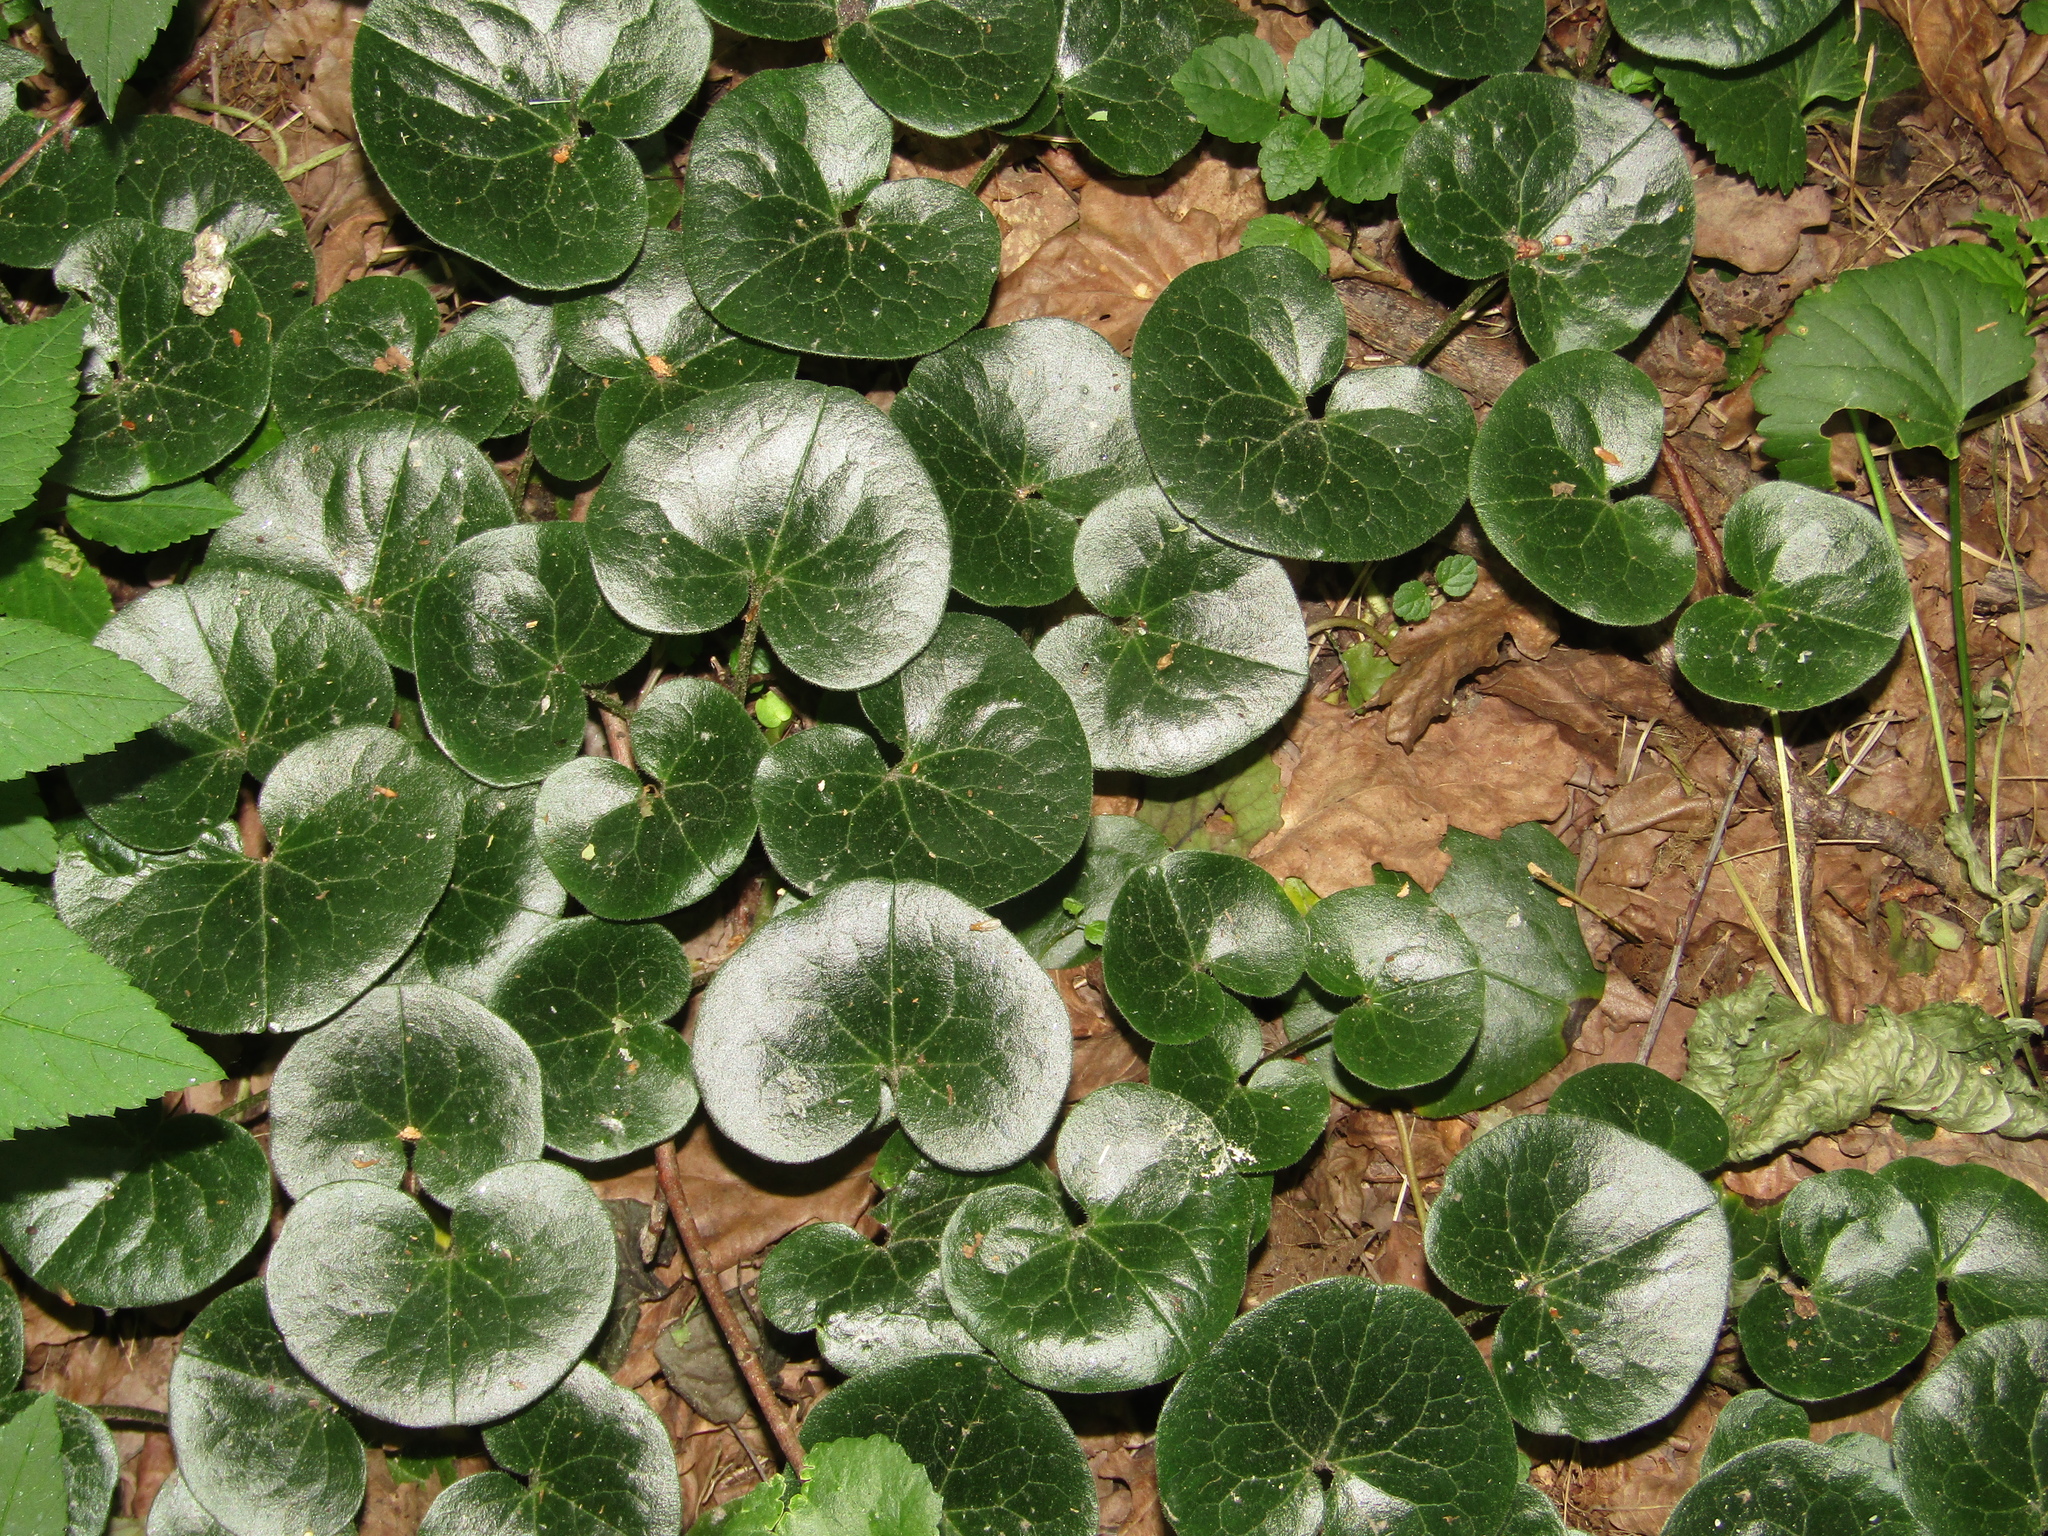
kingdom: Plantae
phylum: Tracheophyta
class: Magnoliopsida
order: Piperales
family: Aristolochiaceae
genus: Asarum
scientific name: Asarum europaeum
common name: Asarabacca
